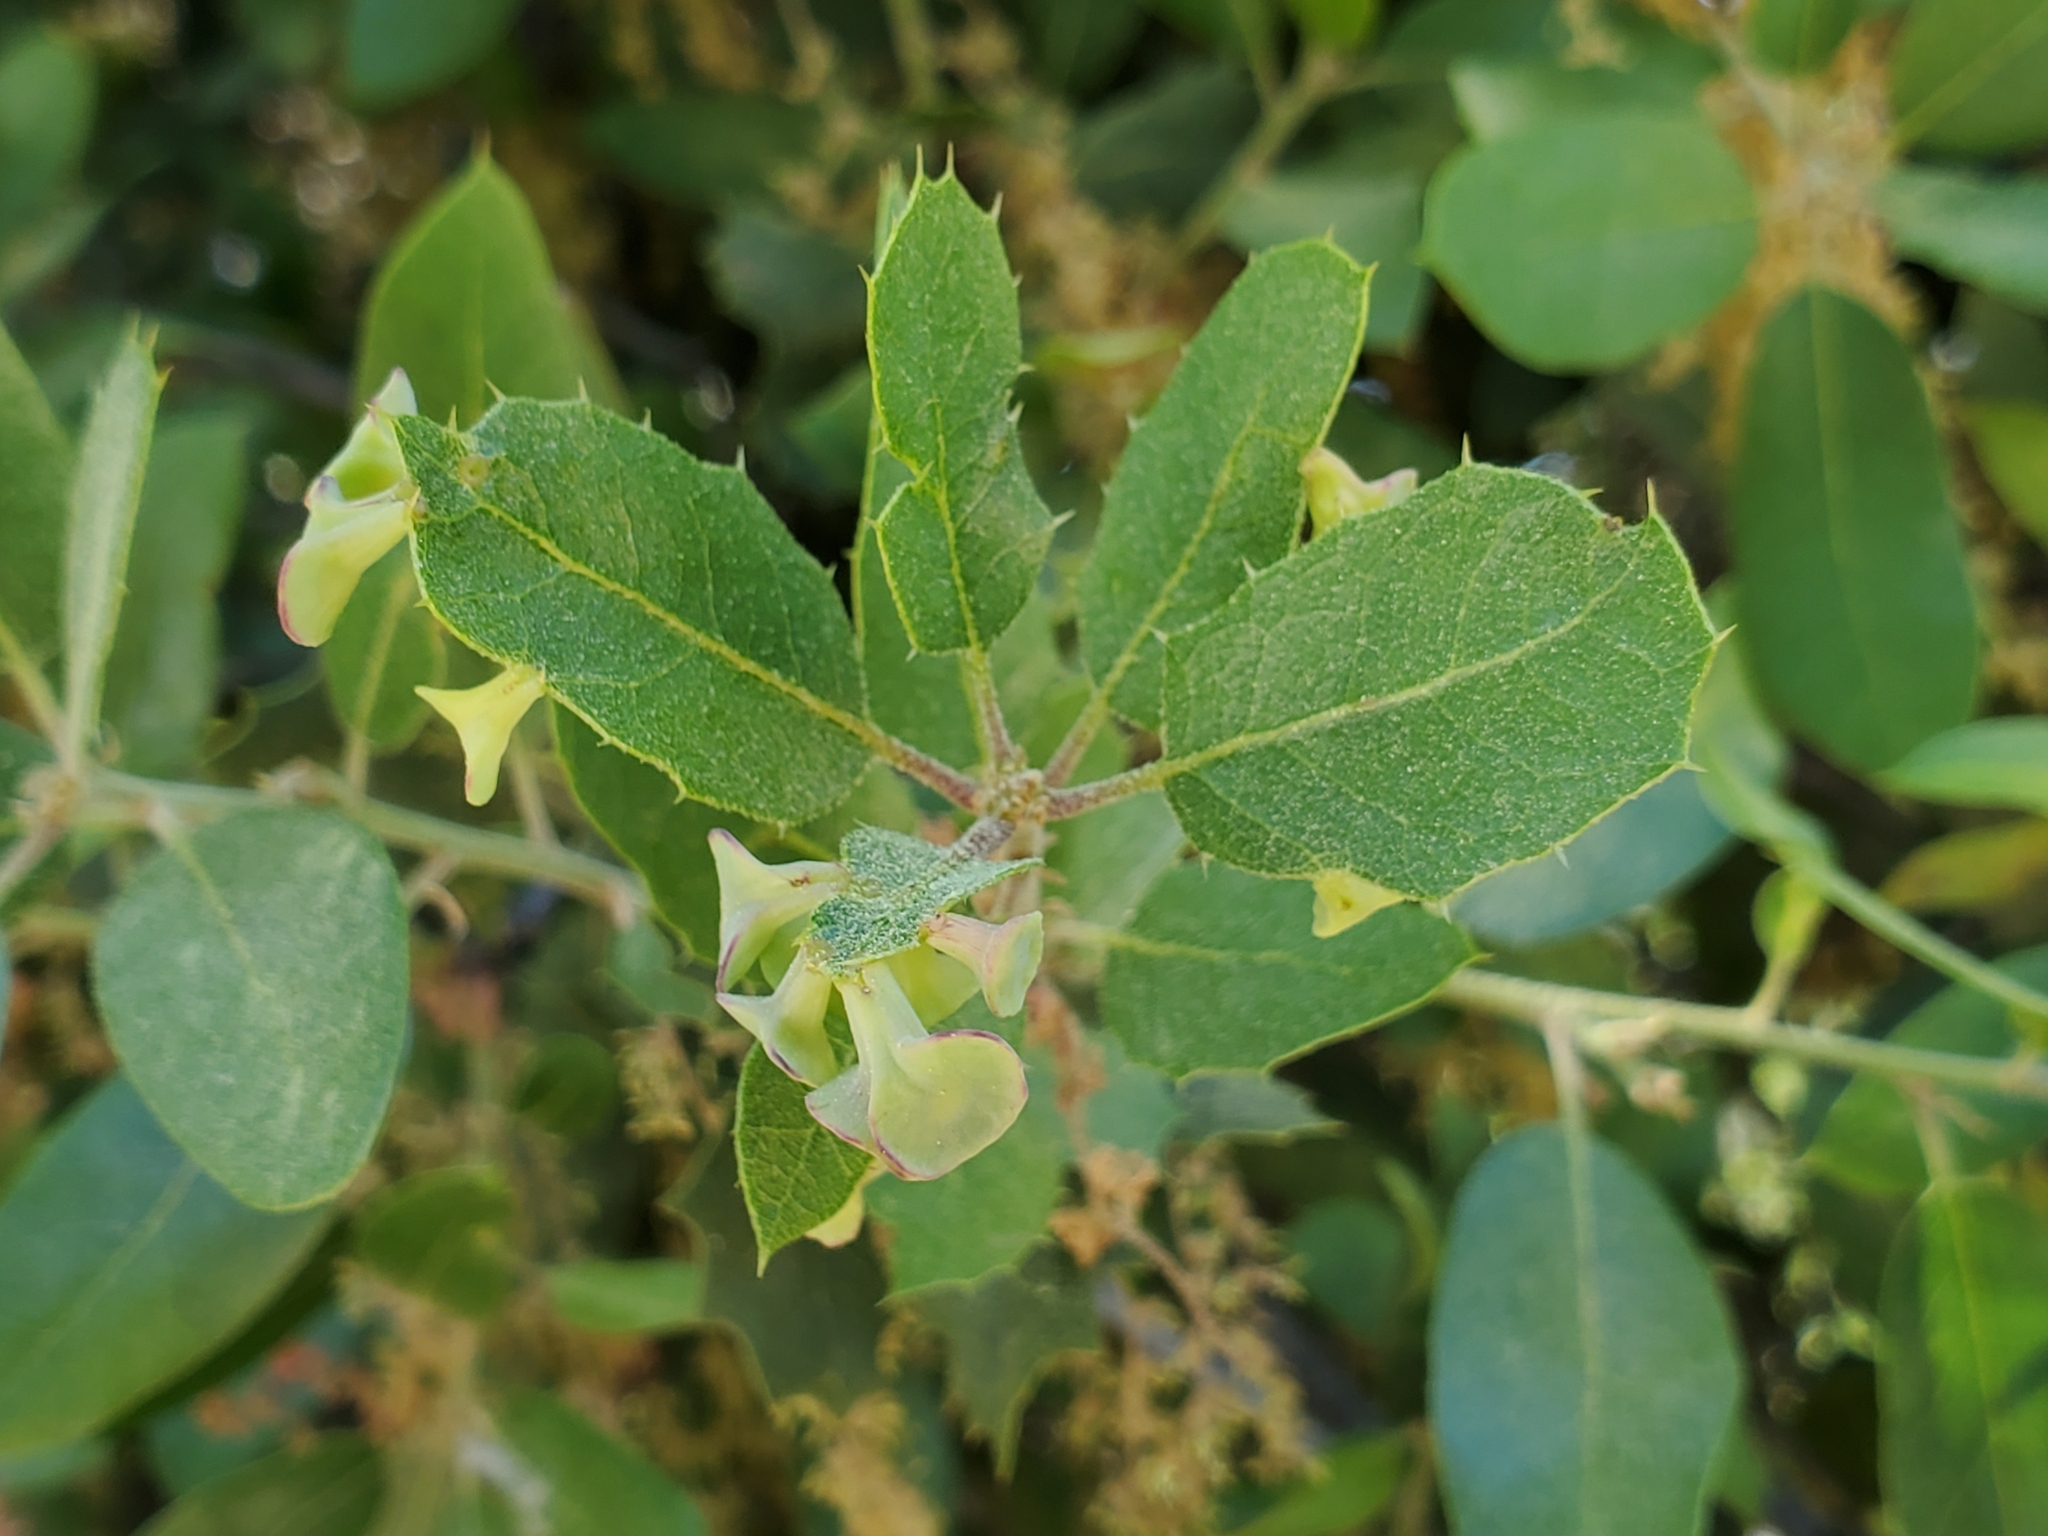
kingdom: Animalia
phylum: Arthropoda
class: Insecta
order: Hymenoptera
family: Cynipidae
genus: Amphibolips
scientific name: Amphibolips quercuspomiformis
